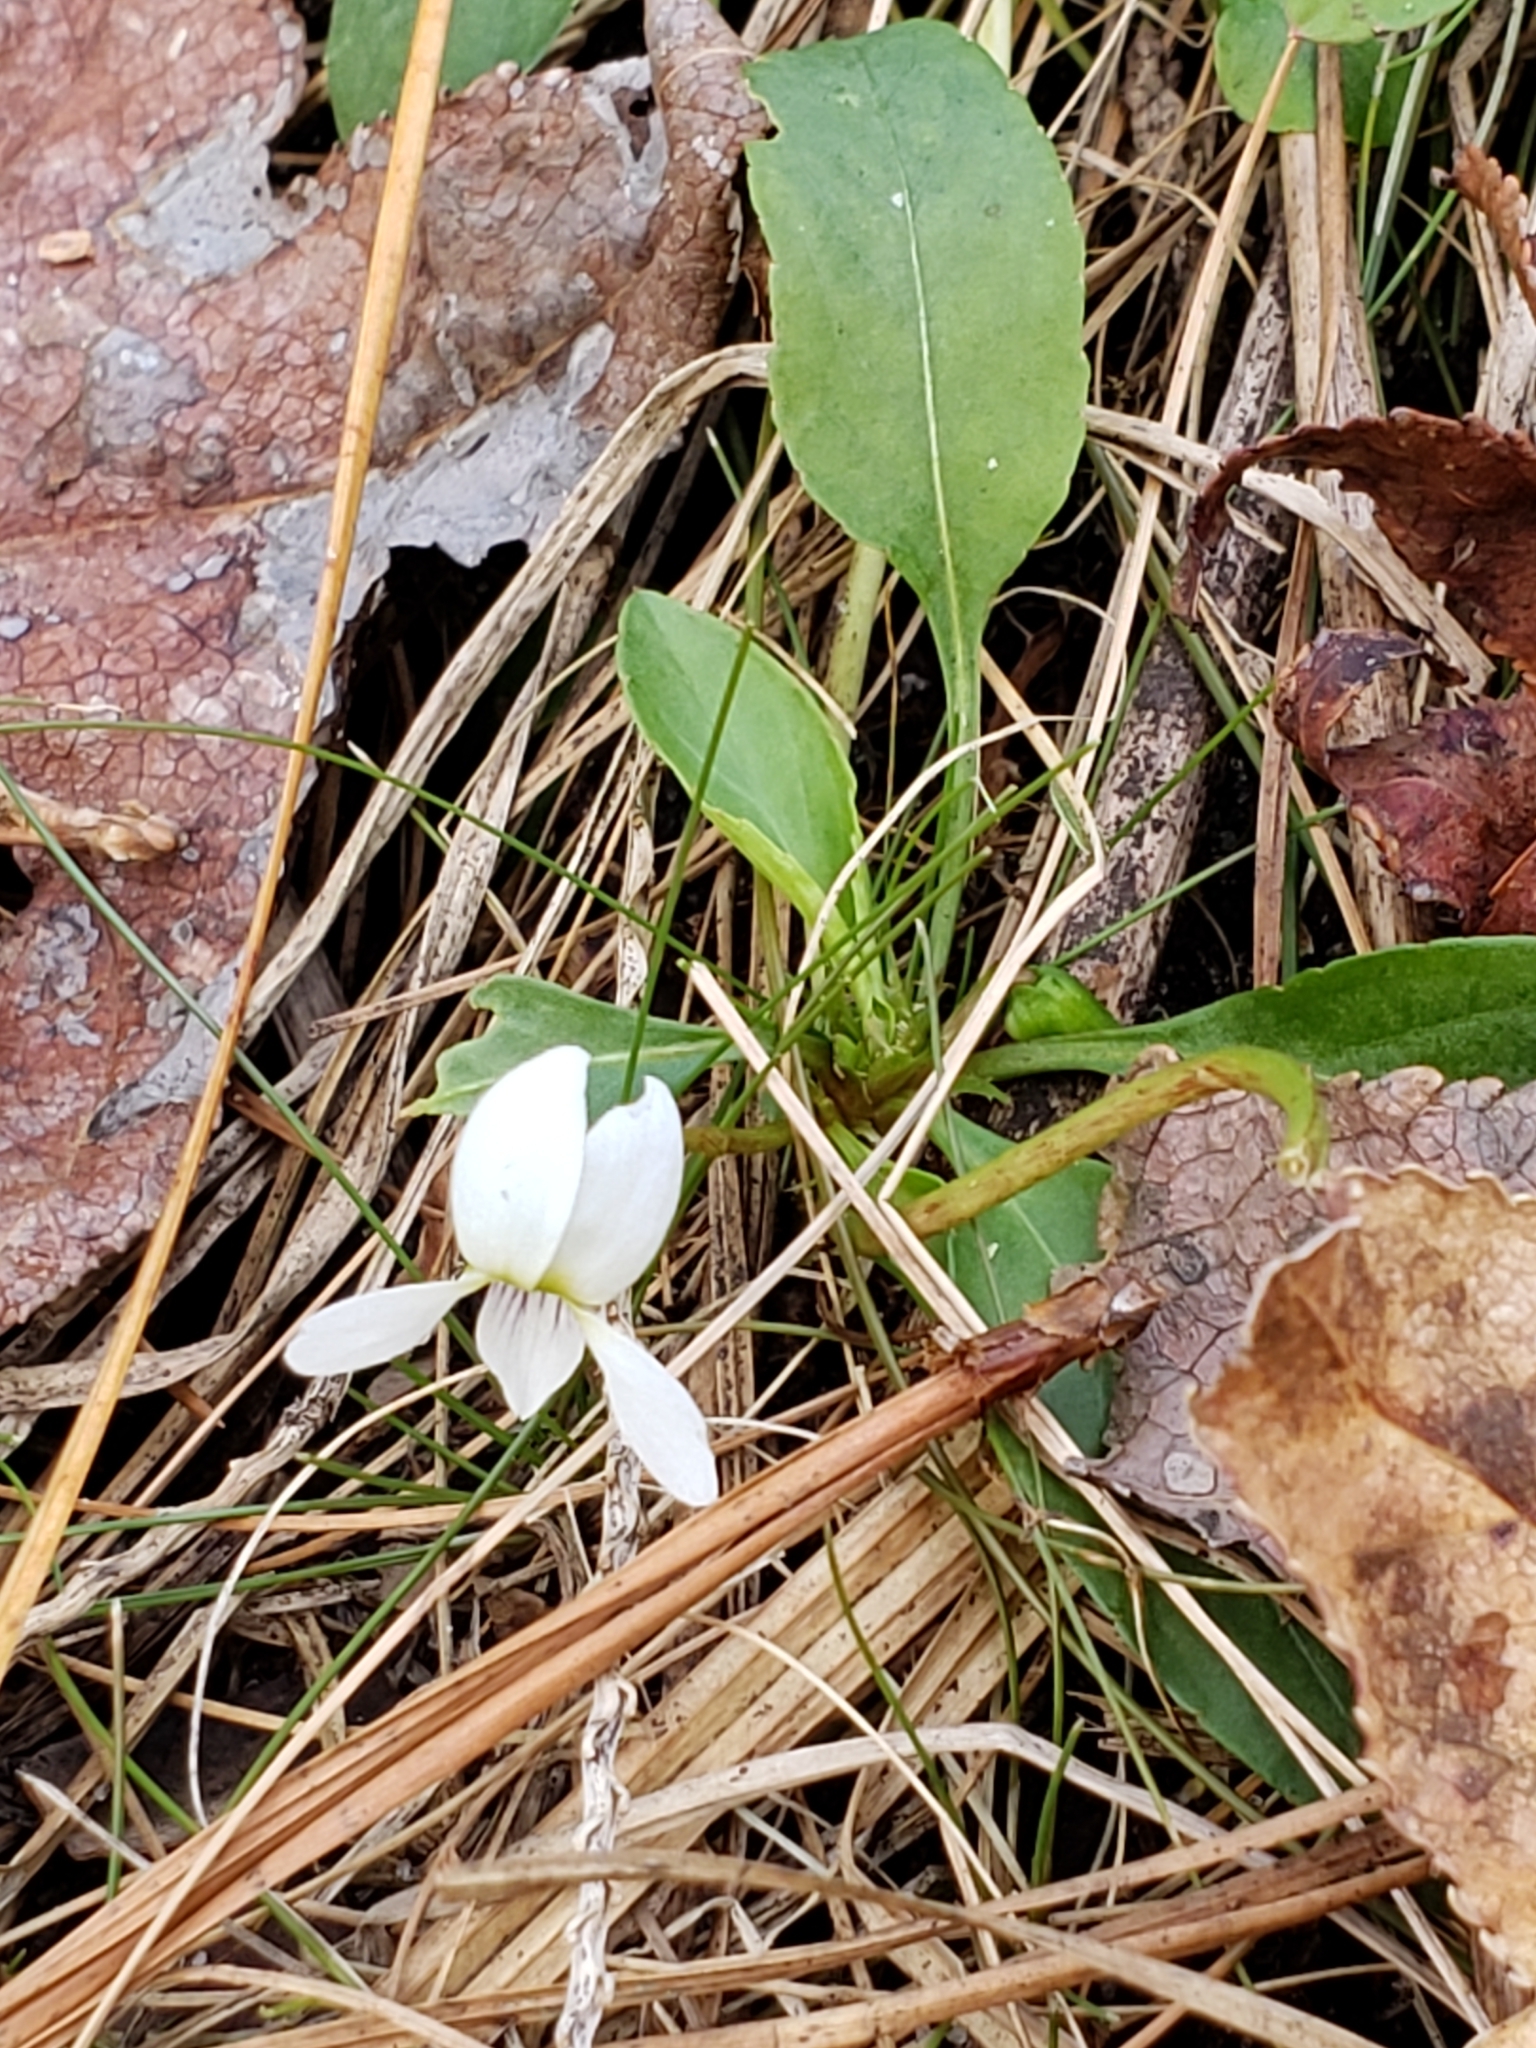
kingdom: Plantae
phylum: Tracheophyta
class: Magnoliopsida
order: Malpighiales
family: Violaceae
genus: Viola
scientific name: Viola primulifolia
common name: Primrose-leaf violet
